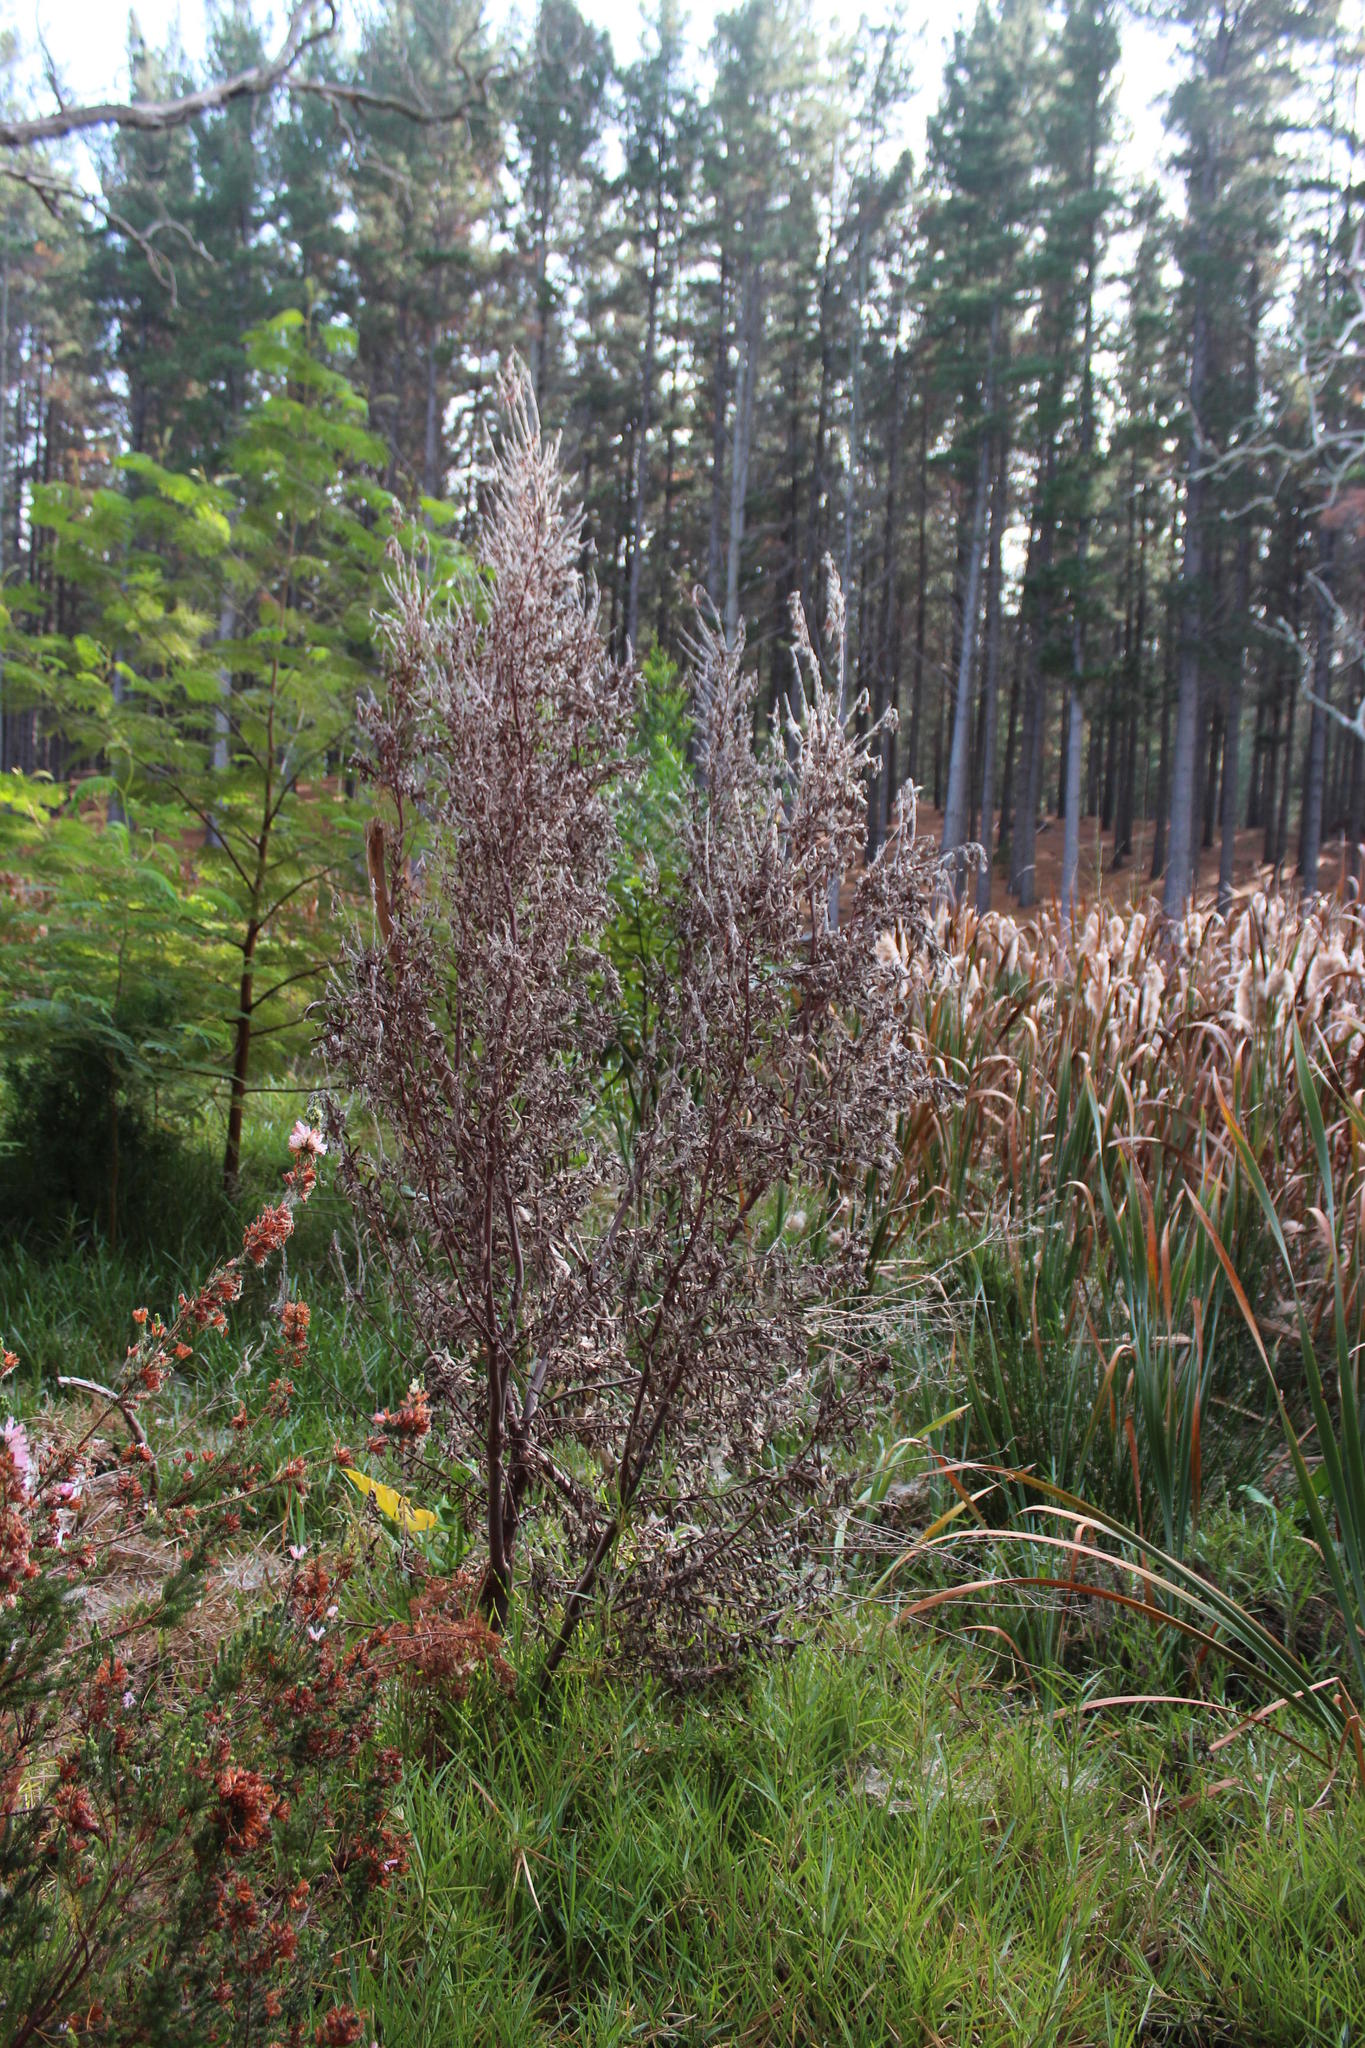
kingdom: Plantae
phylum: Tracheophyta
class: Magnoliopsida
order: Proteales
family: Proteaceae
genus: Leucadendron
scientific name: Leucadendron macowanii
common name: Acacia-leaf conebush
